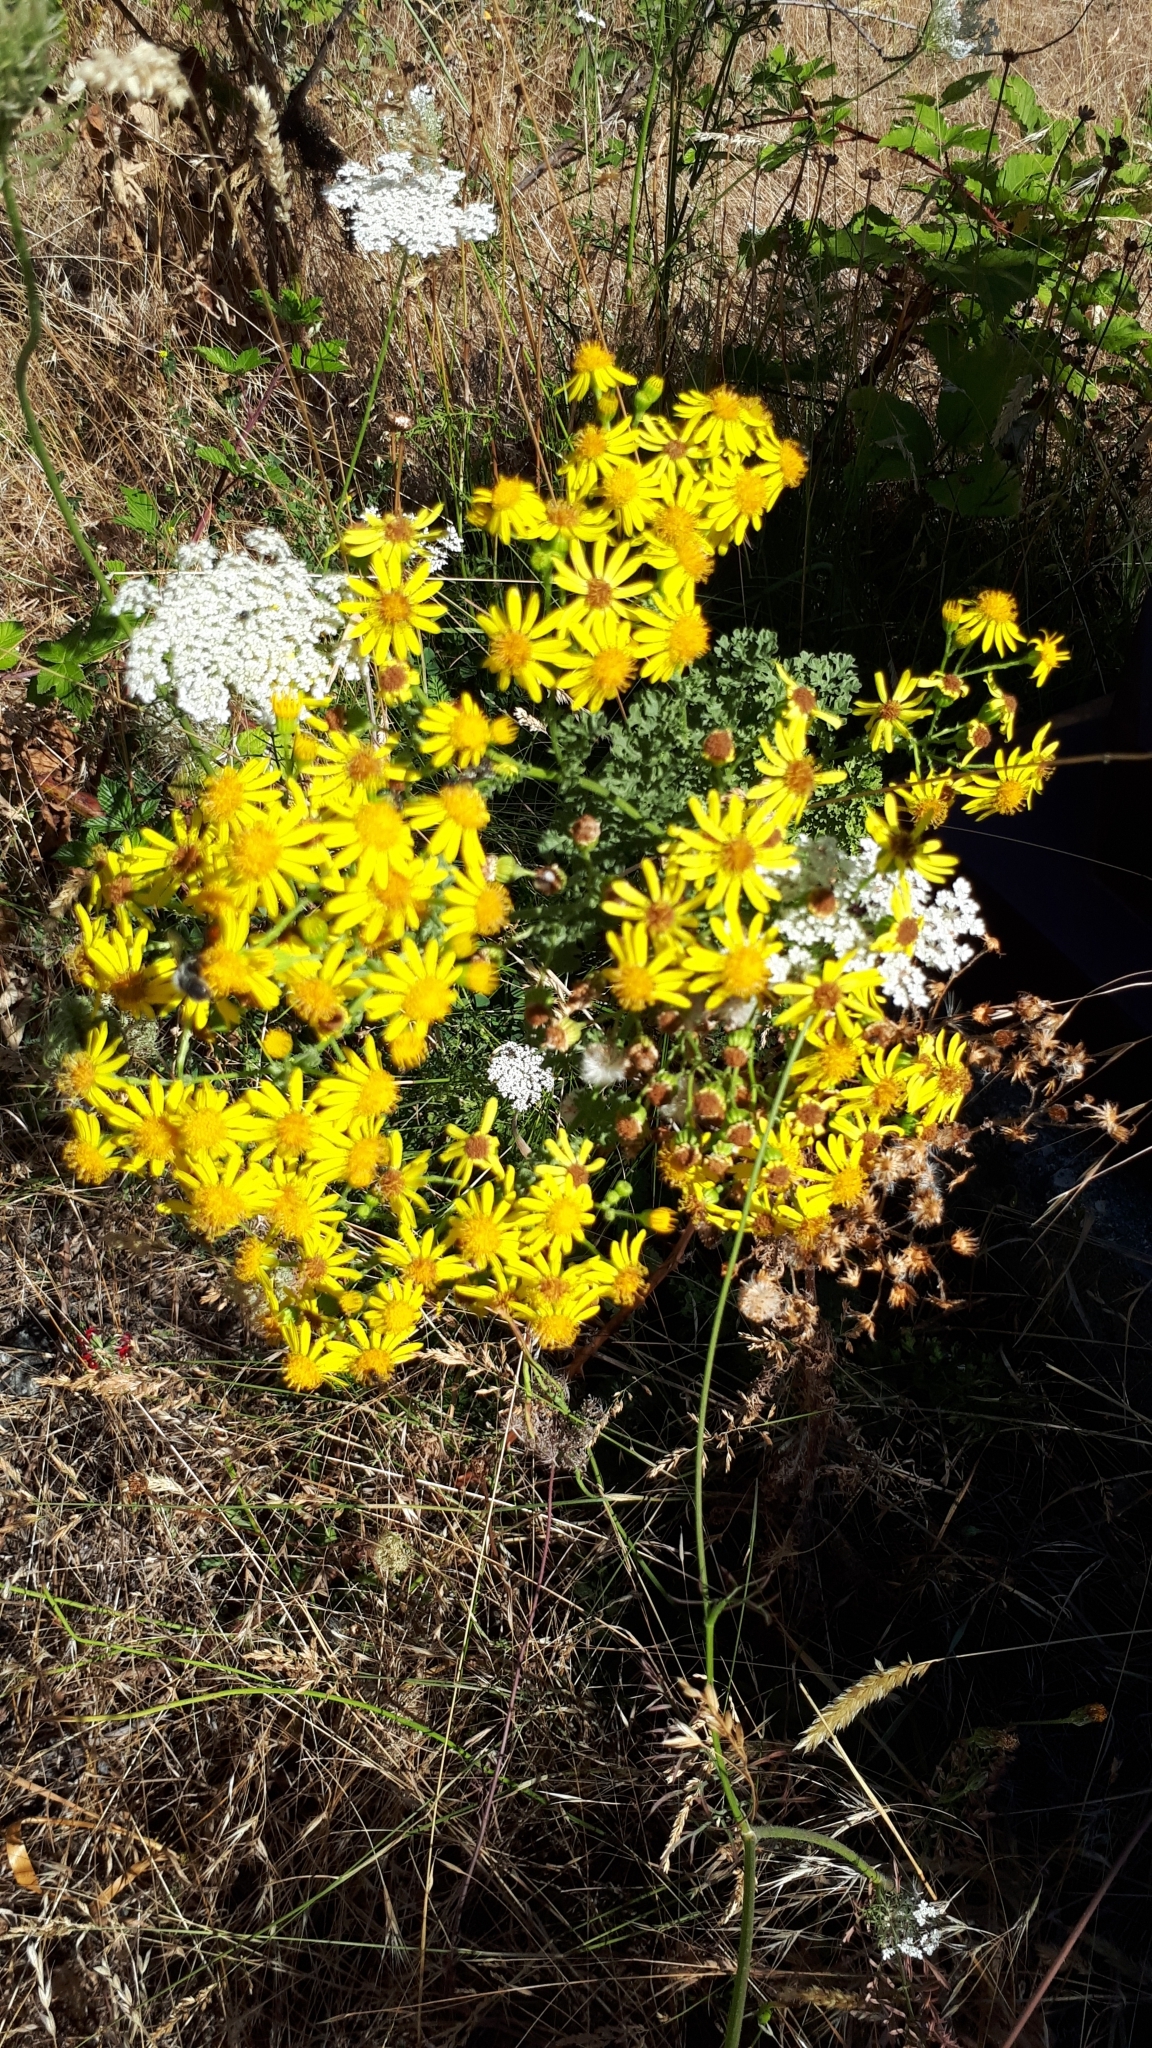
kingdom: Plantae
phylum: Tracheophyta
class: Magnoliopsida
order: Asterales
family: Asteraceae
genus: Jacobaea
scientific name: Jacobaea vulgaris
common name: Stinking willie
